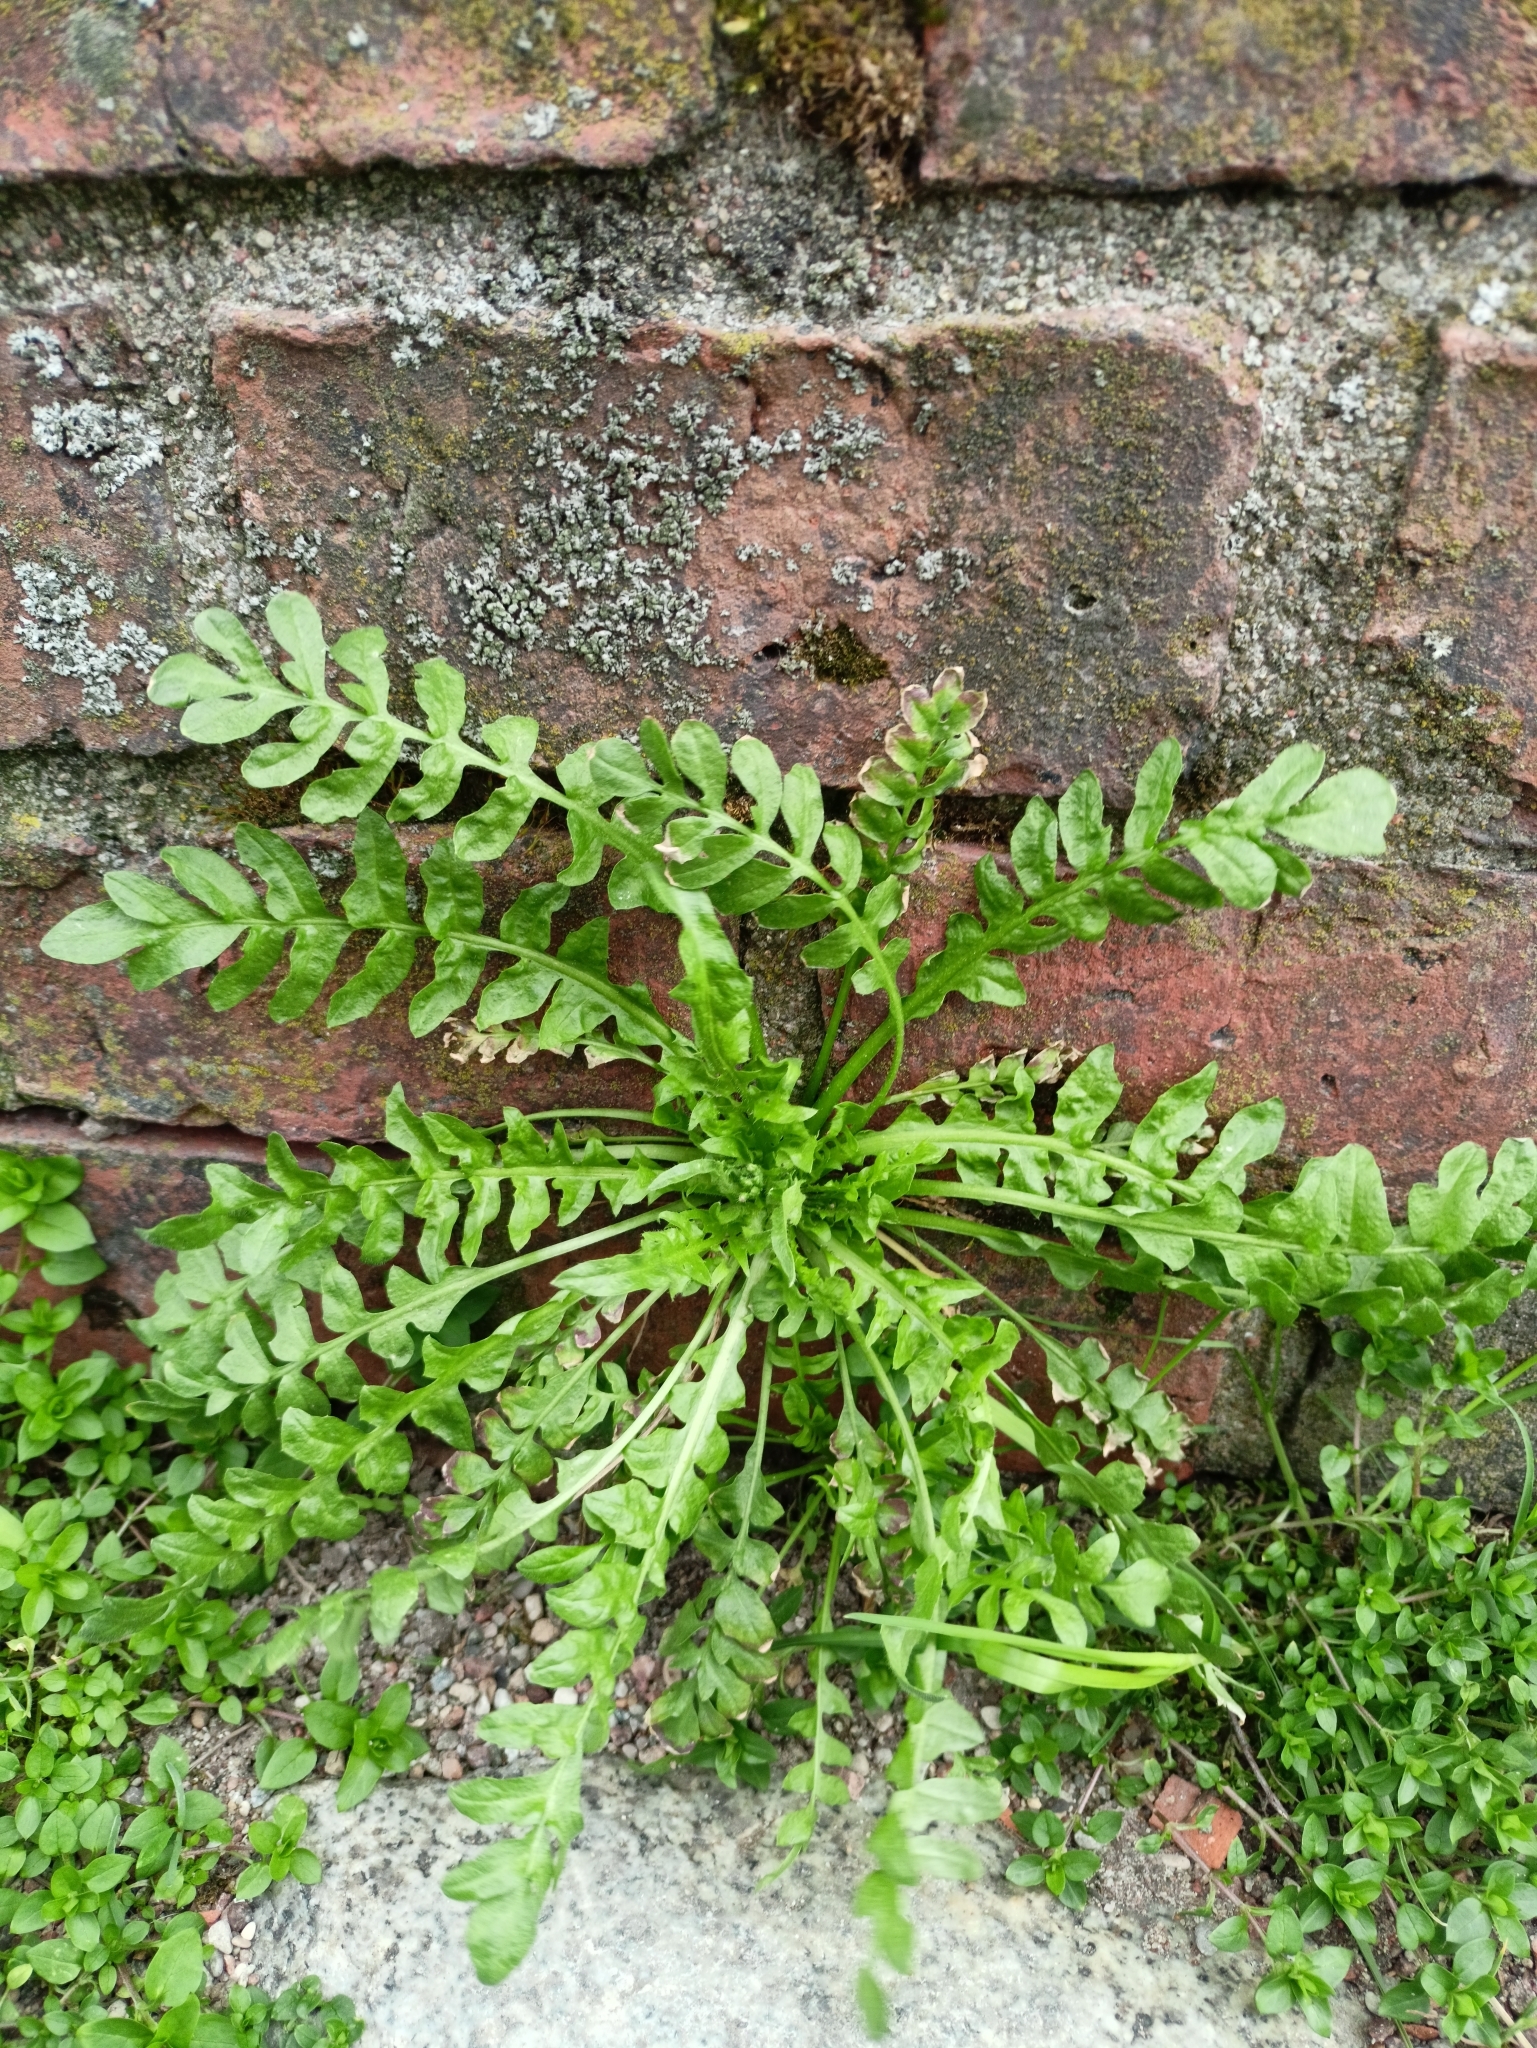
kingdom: Plantae
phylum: Tracheophyta
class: Magnoliopsida
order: Brassicales
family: Brassicaceae
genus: Capsella
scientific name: Capsella bursa-pastoris
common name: Shepherd's purse
